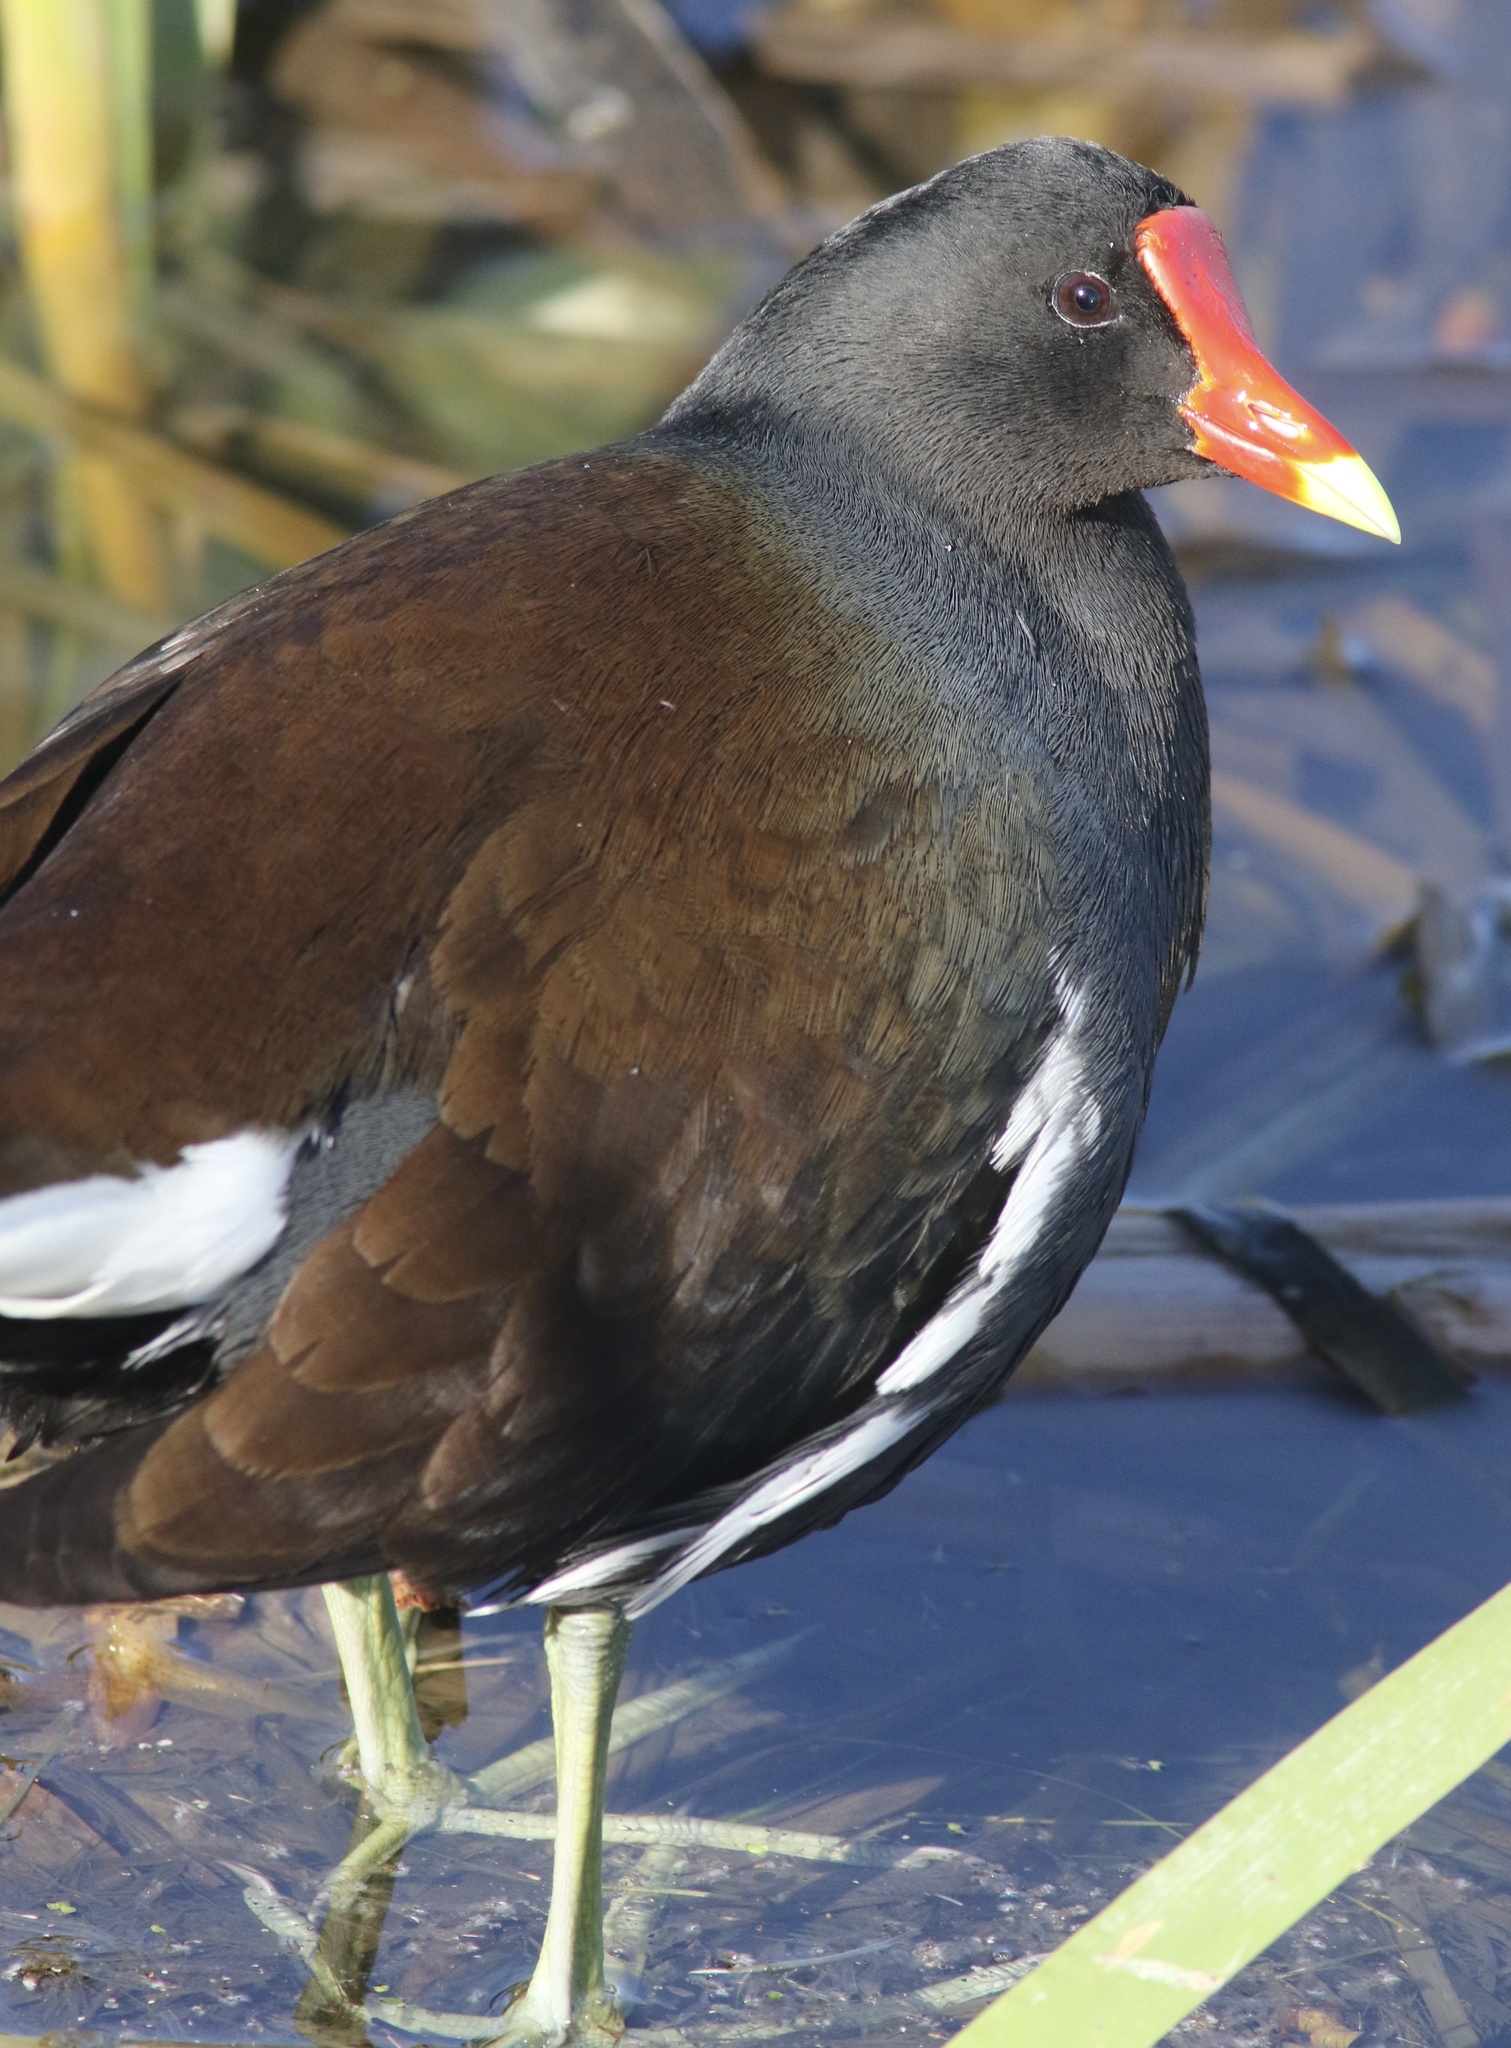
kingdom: Animalia
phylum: Chordata
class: Aves
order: Gruiformes
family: Rallidae
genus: Gallinula
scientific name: Gallinula chloropus
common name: Common moorhen
